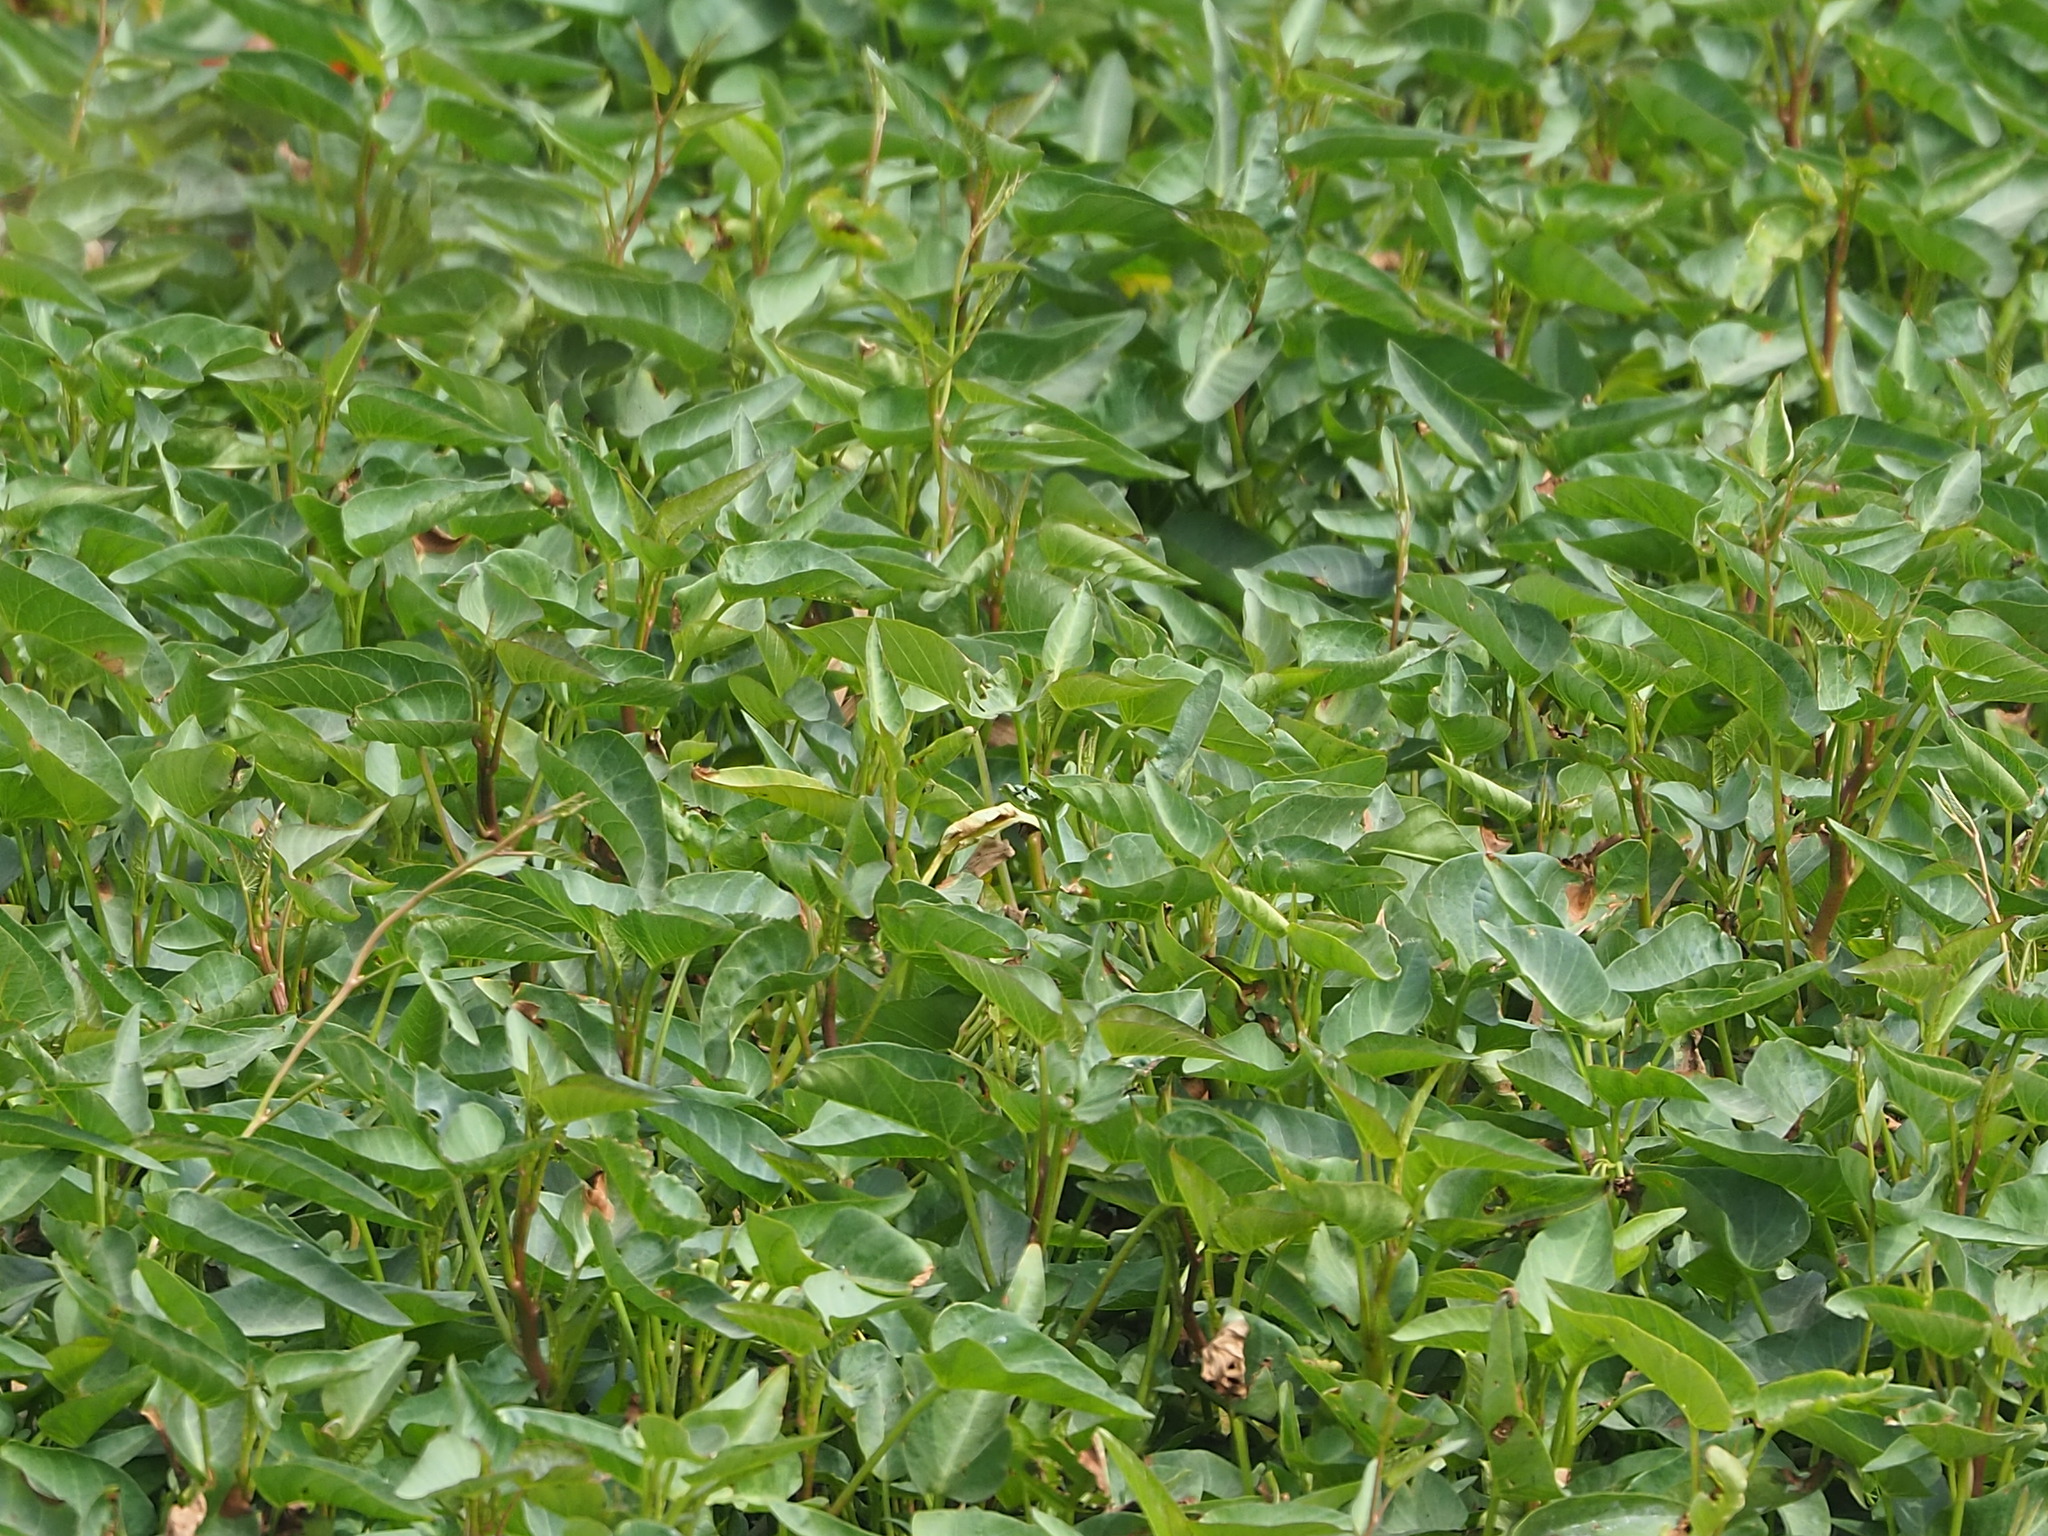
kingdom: Plantae
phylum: Tracheophyta
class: Magnoliopsida
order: Solanales
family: Convolvulaceae
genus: Ipomoea
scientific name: Ipomoea aquatica
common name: Swamp morning-glory
